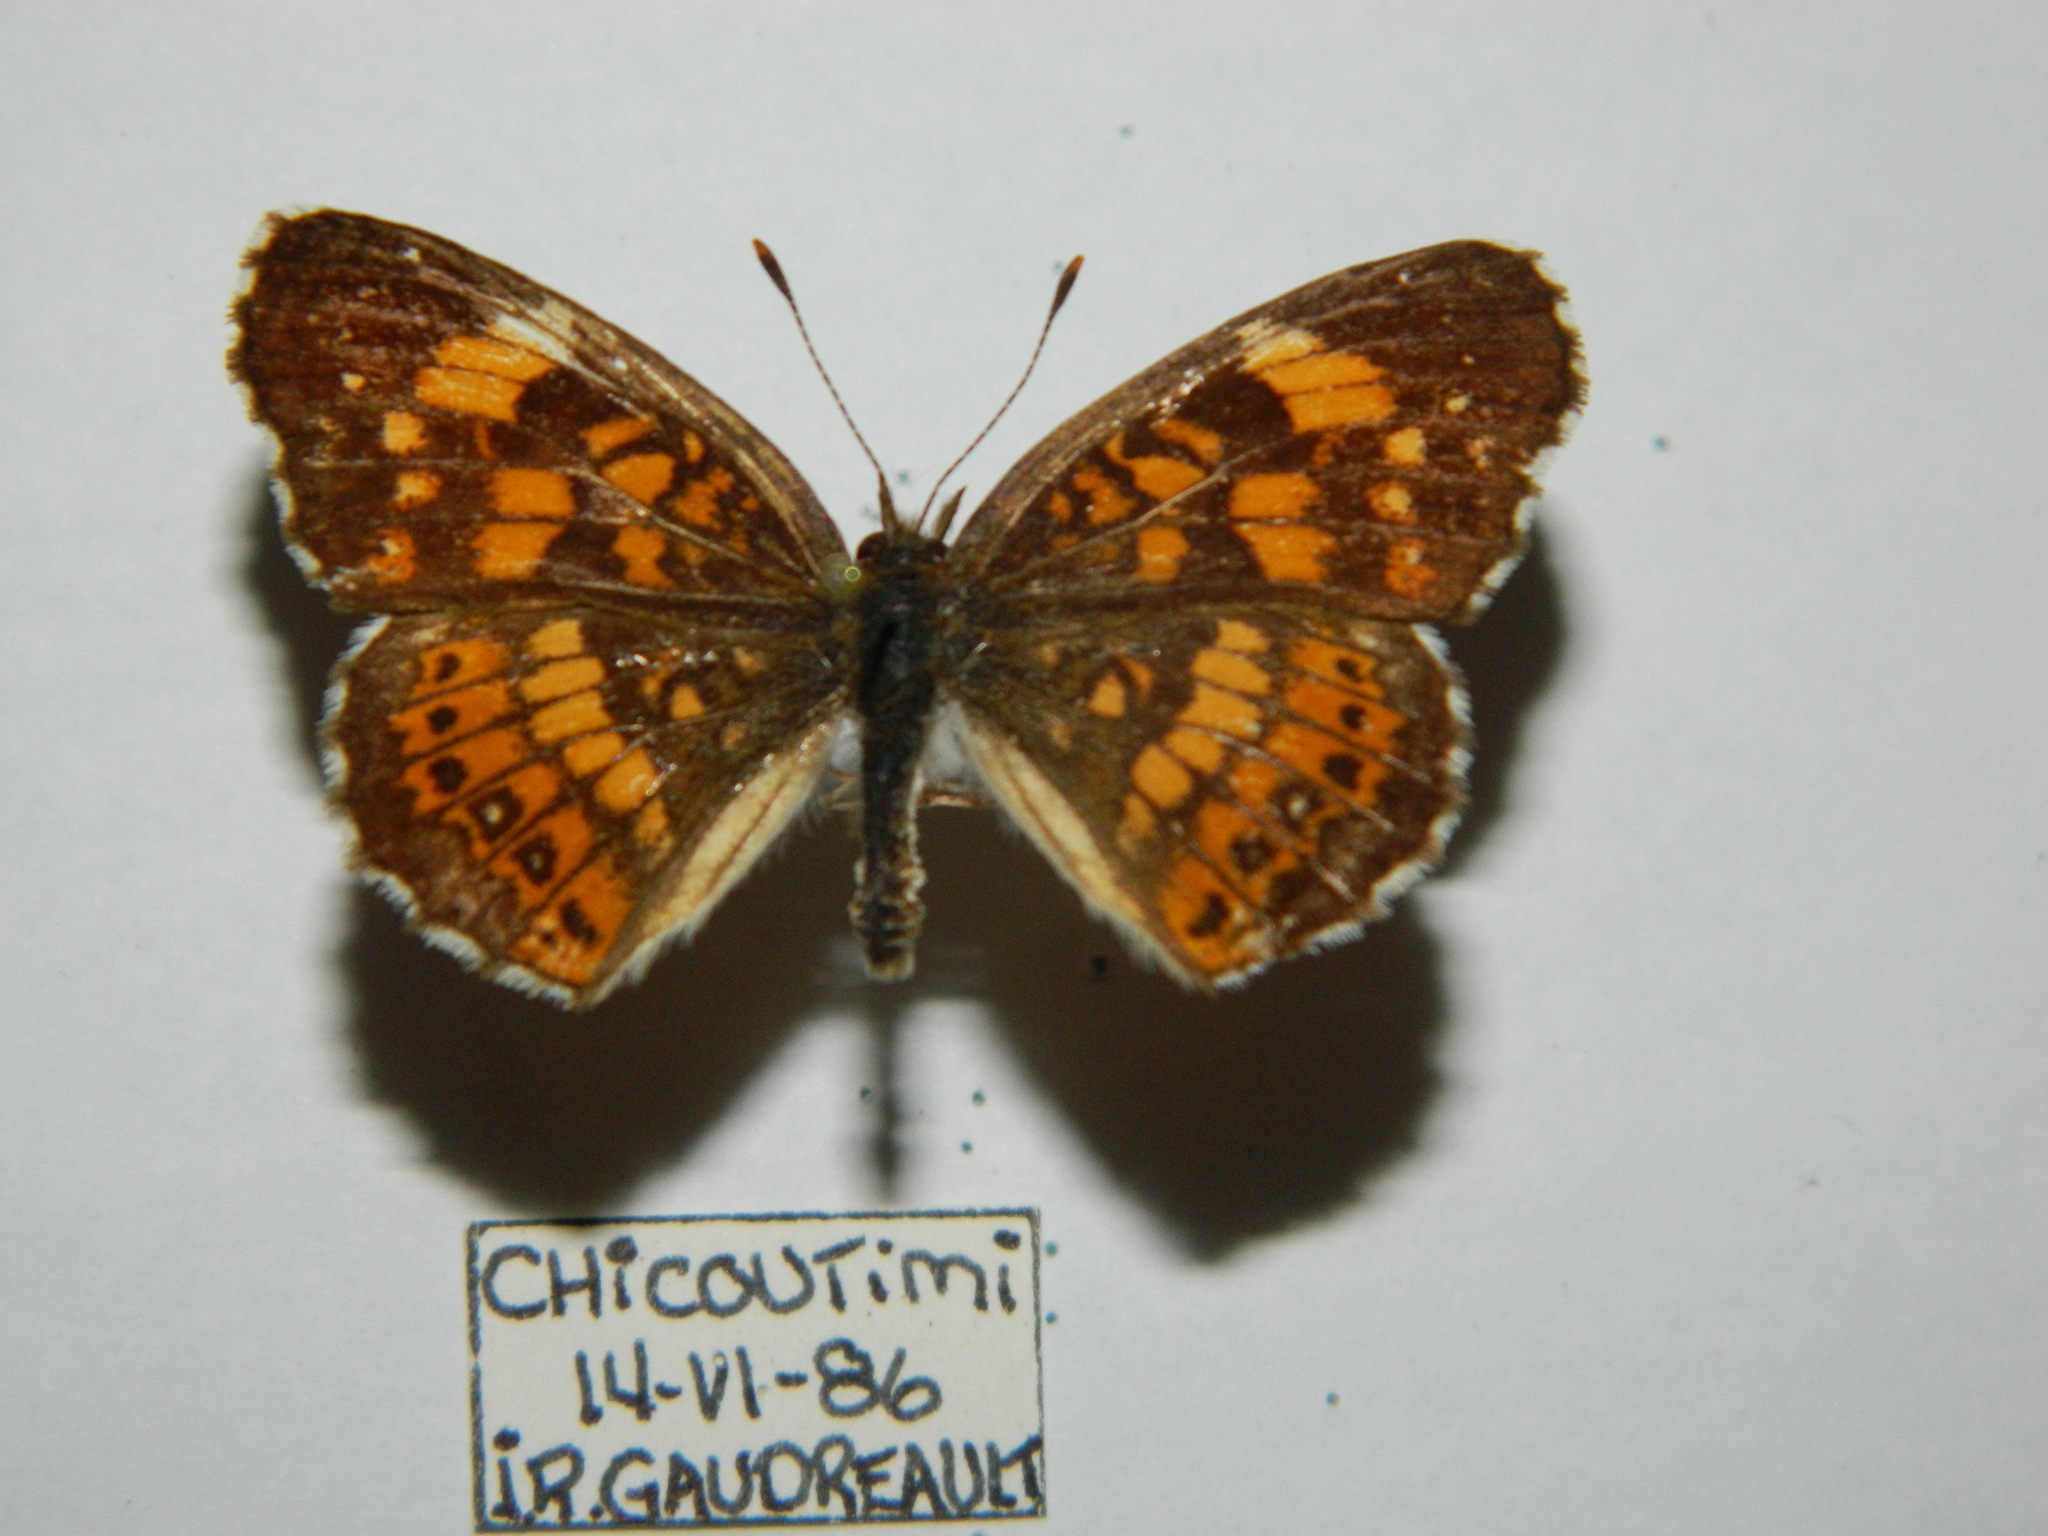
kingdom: Animalia
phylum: Arthropoda
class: Insecta
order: Lepidoptera
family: Nymphalidae
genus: Chlosyne
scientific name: Chlosyne nycteis
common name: Silvery checkerspot
